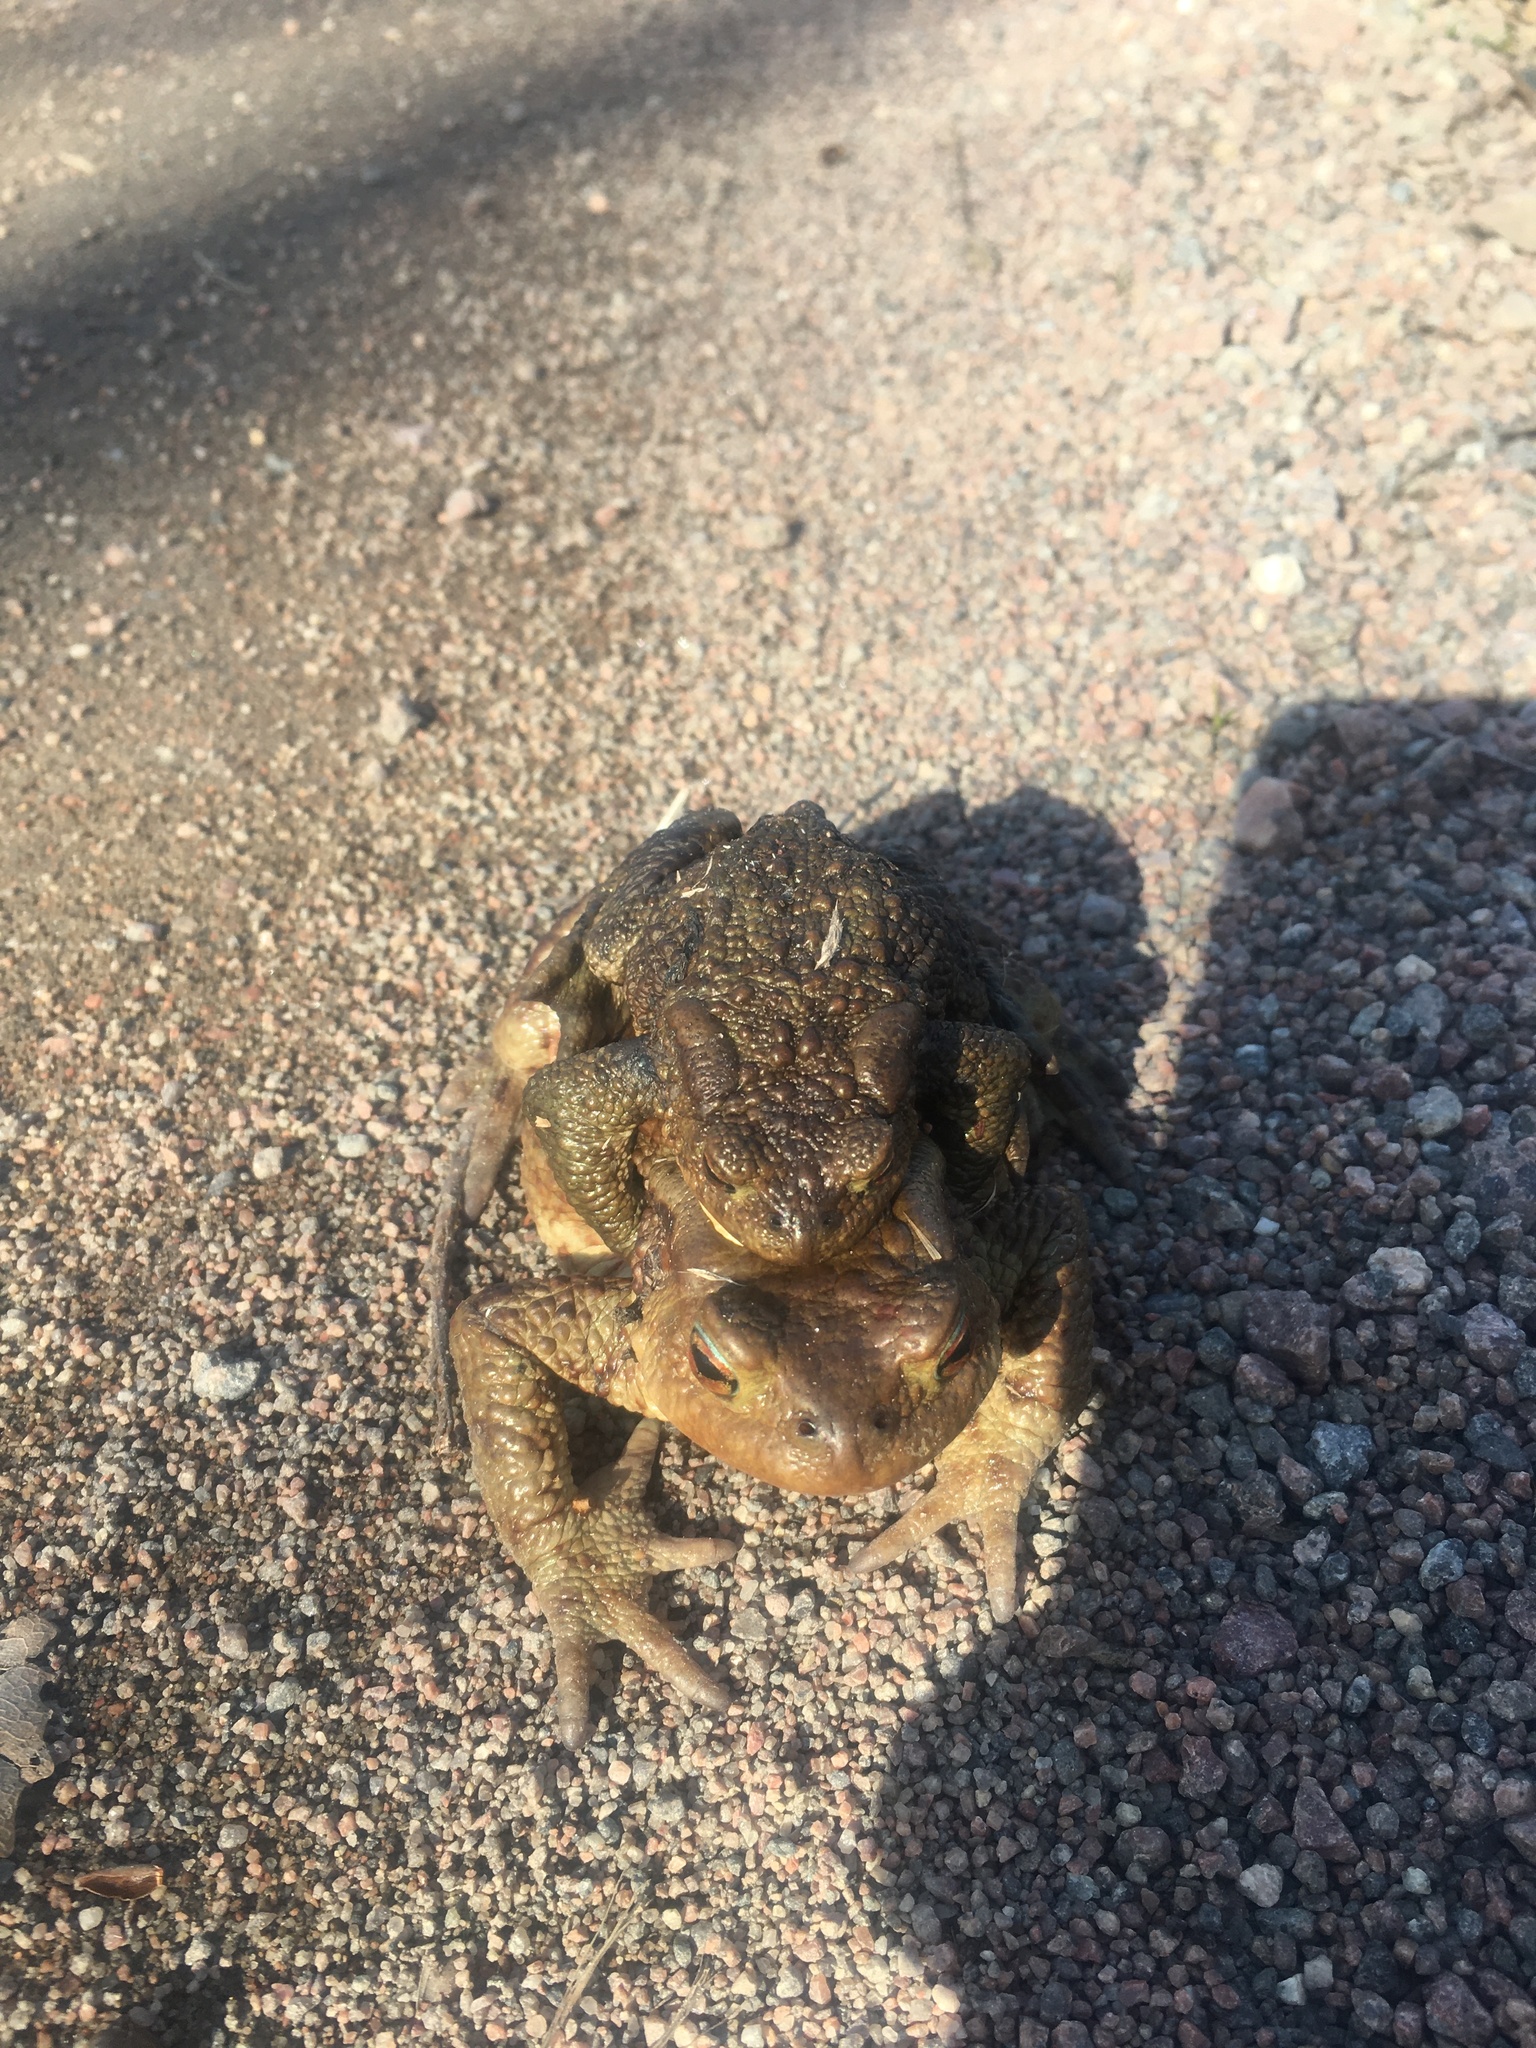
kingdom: Animalia
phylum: Chordata
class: Amphibia
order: Anura
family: Bufonidae
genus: Bufo
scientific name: Bufo bufo
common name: Common toad
